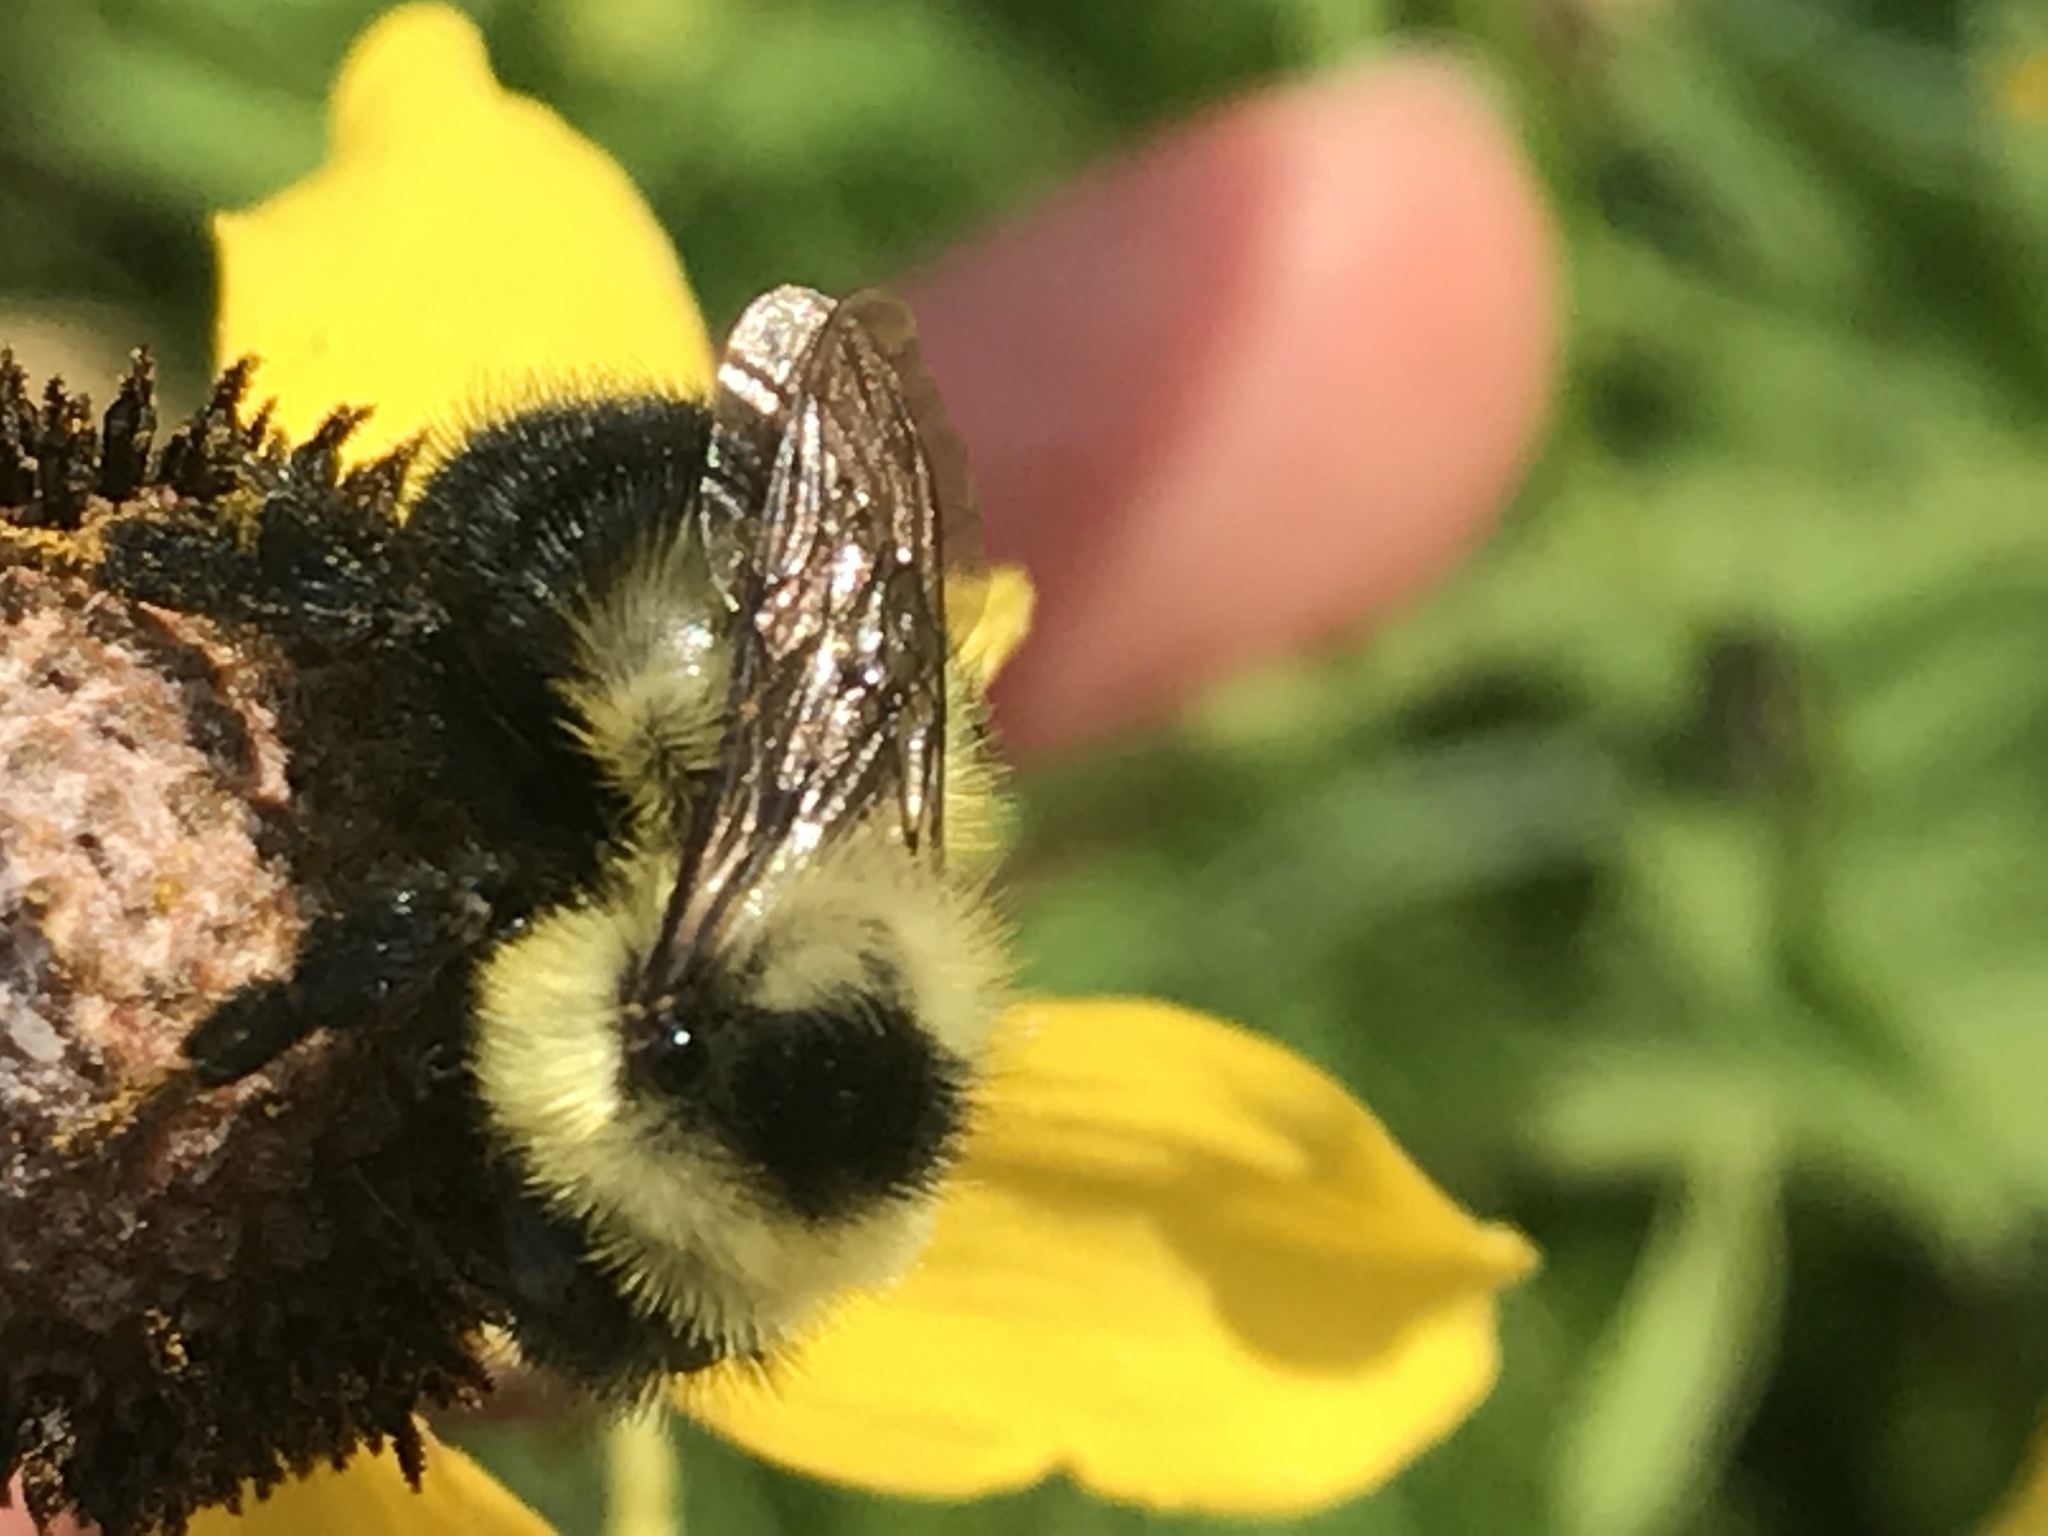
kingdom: Animalia
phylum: Arthropoda
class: Insecta
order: Hymenoptera
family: Apidae
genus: Bombus
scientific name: Bombus rufocinctus
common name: Red-belted bumble bee
